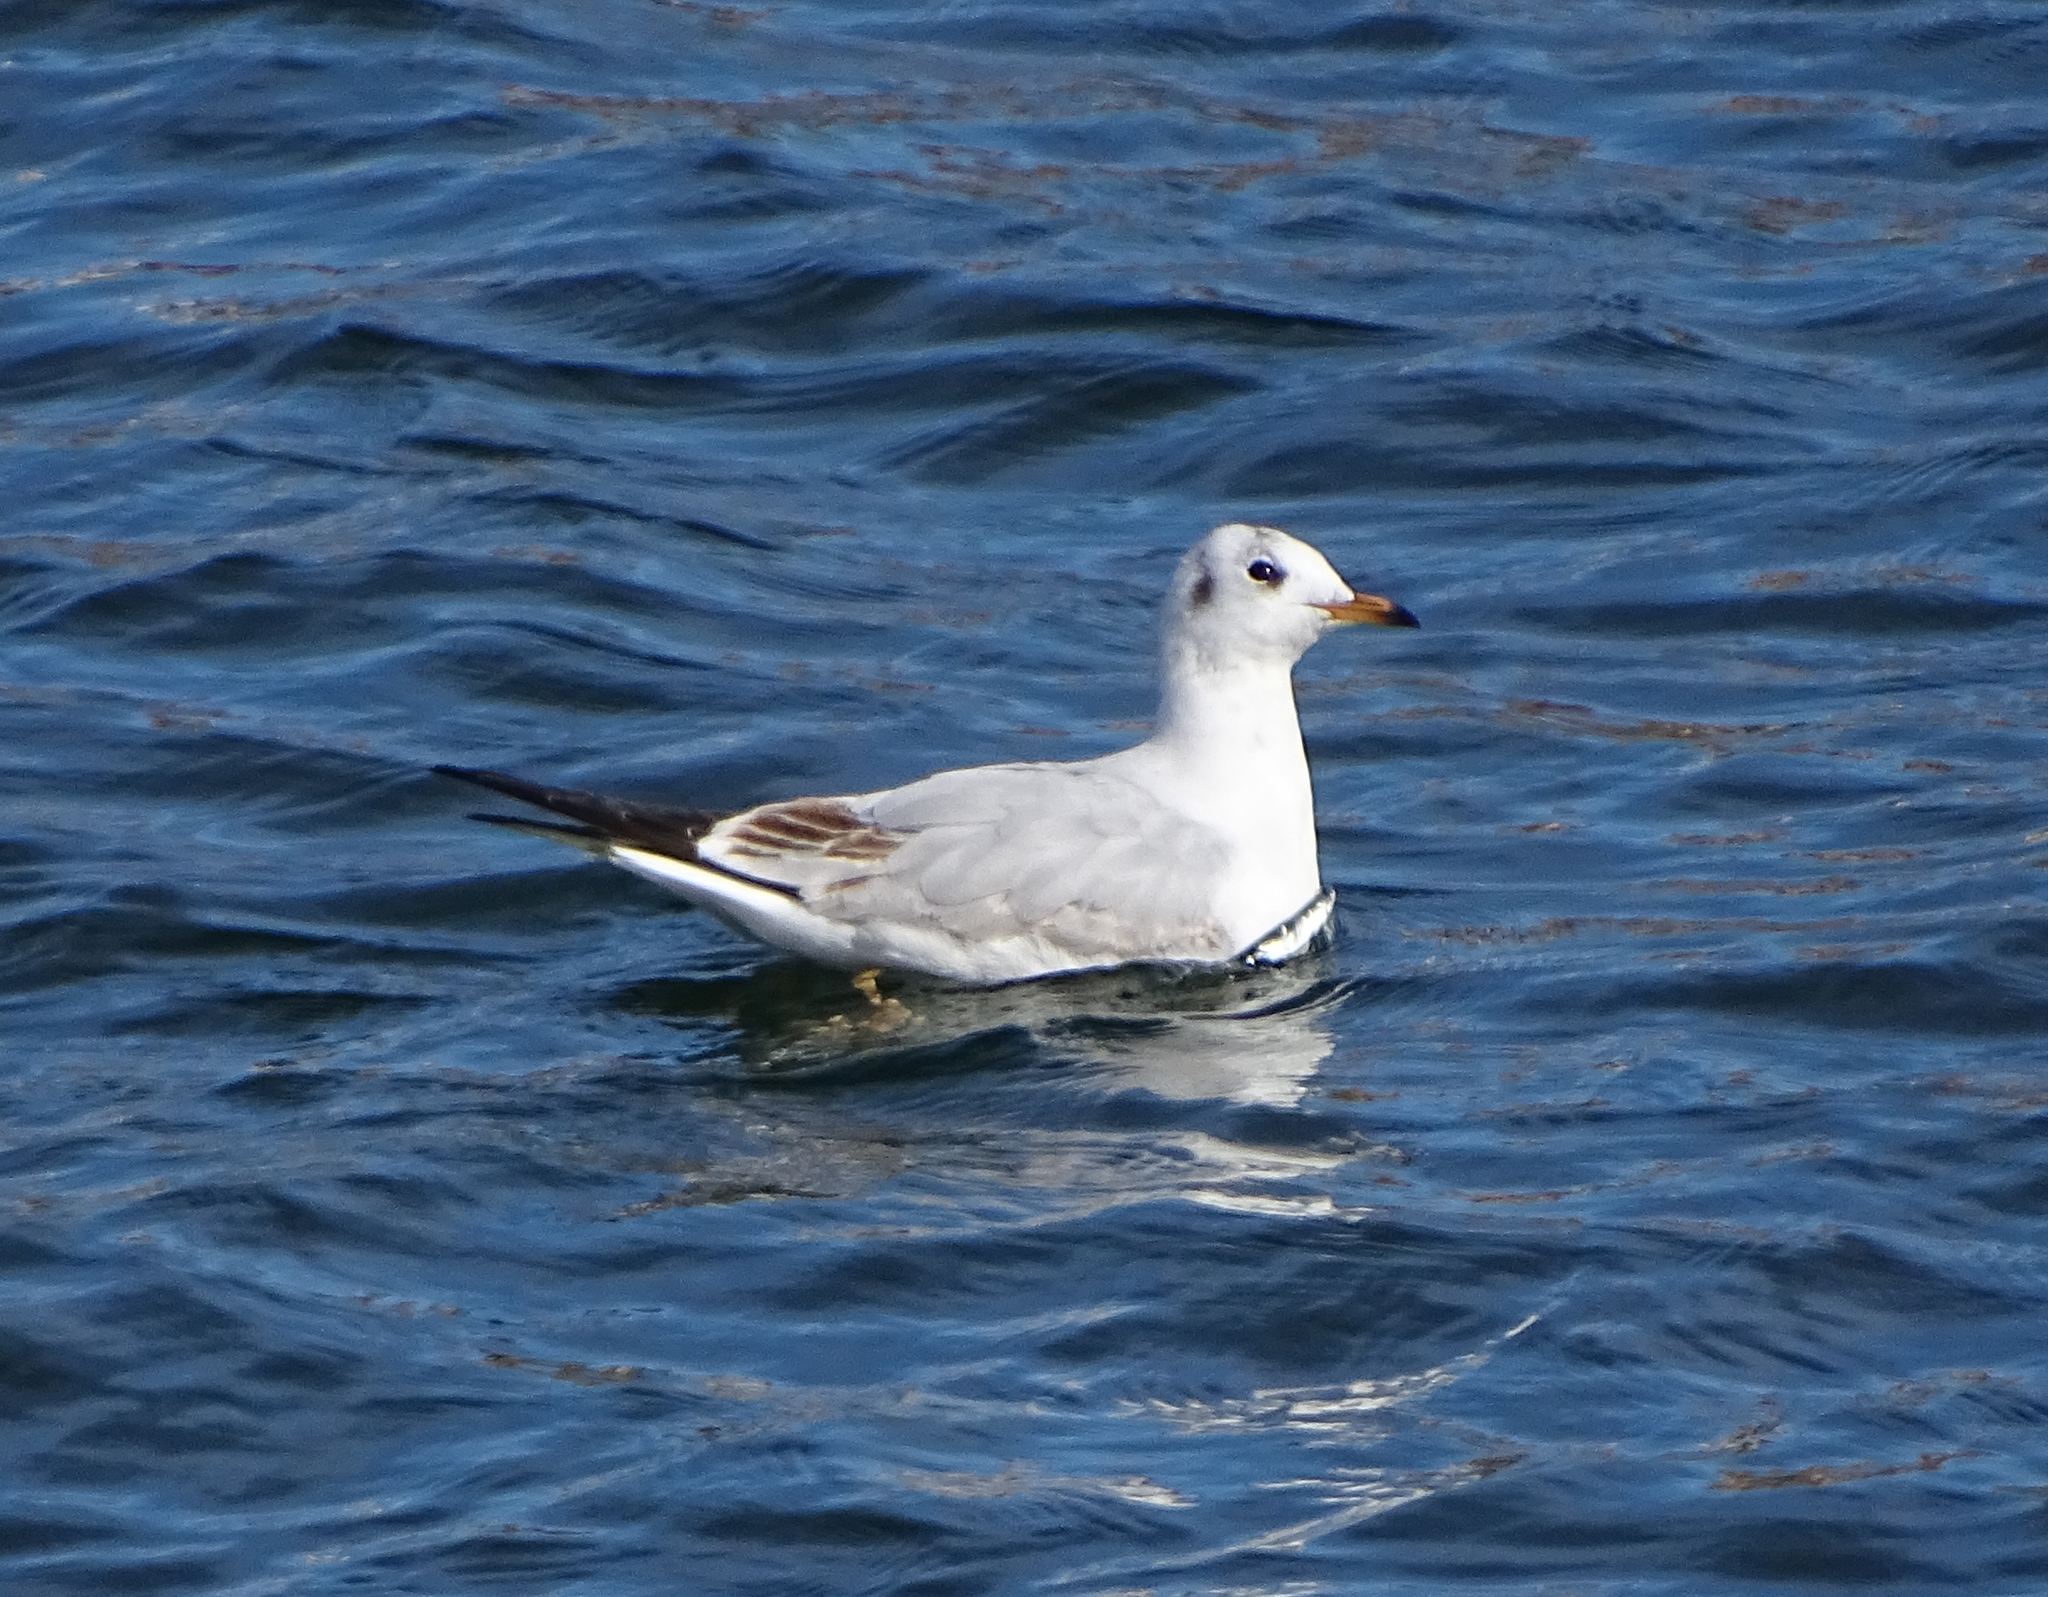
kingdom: Animalia
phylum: Chordata
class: Aves
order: Charadriiformes
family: Laridae
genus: Chroicocephalus
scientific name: Chroicocephalus ridibundus
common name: Black-headed gull
